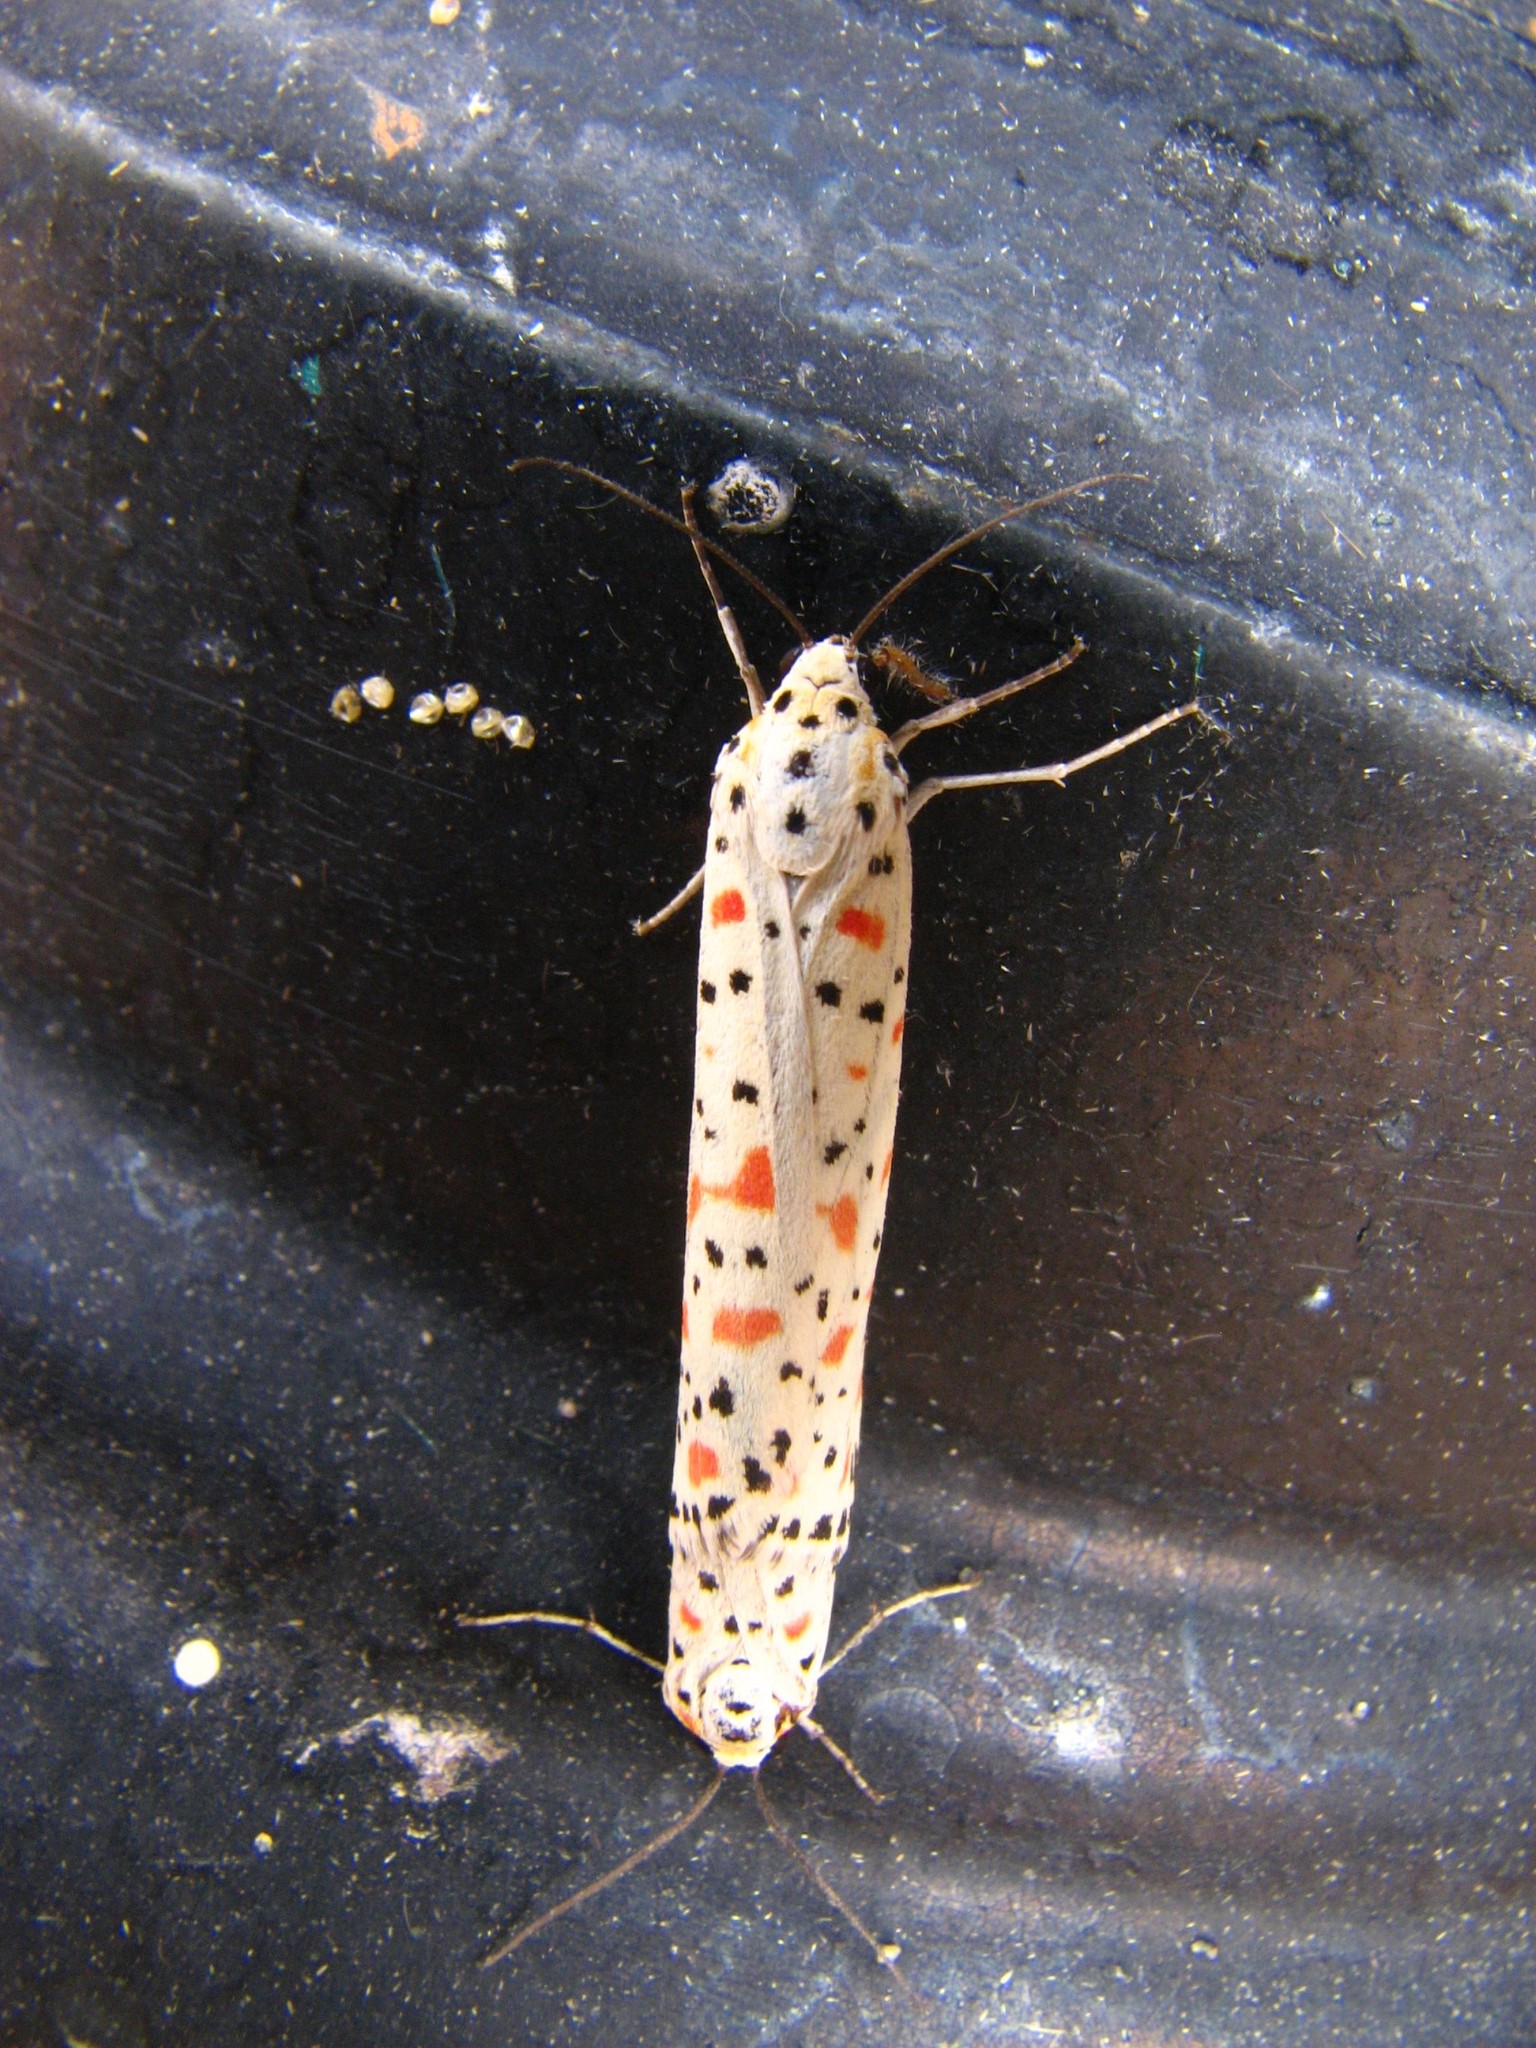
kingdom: Animalia
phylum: Arthropoda
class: Insecta
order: Lepidoptera
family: Erebidae
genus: Utetheisa
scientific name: Utetheisa pulchelloides
